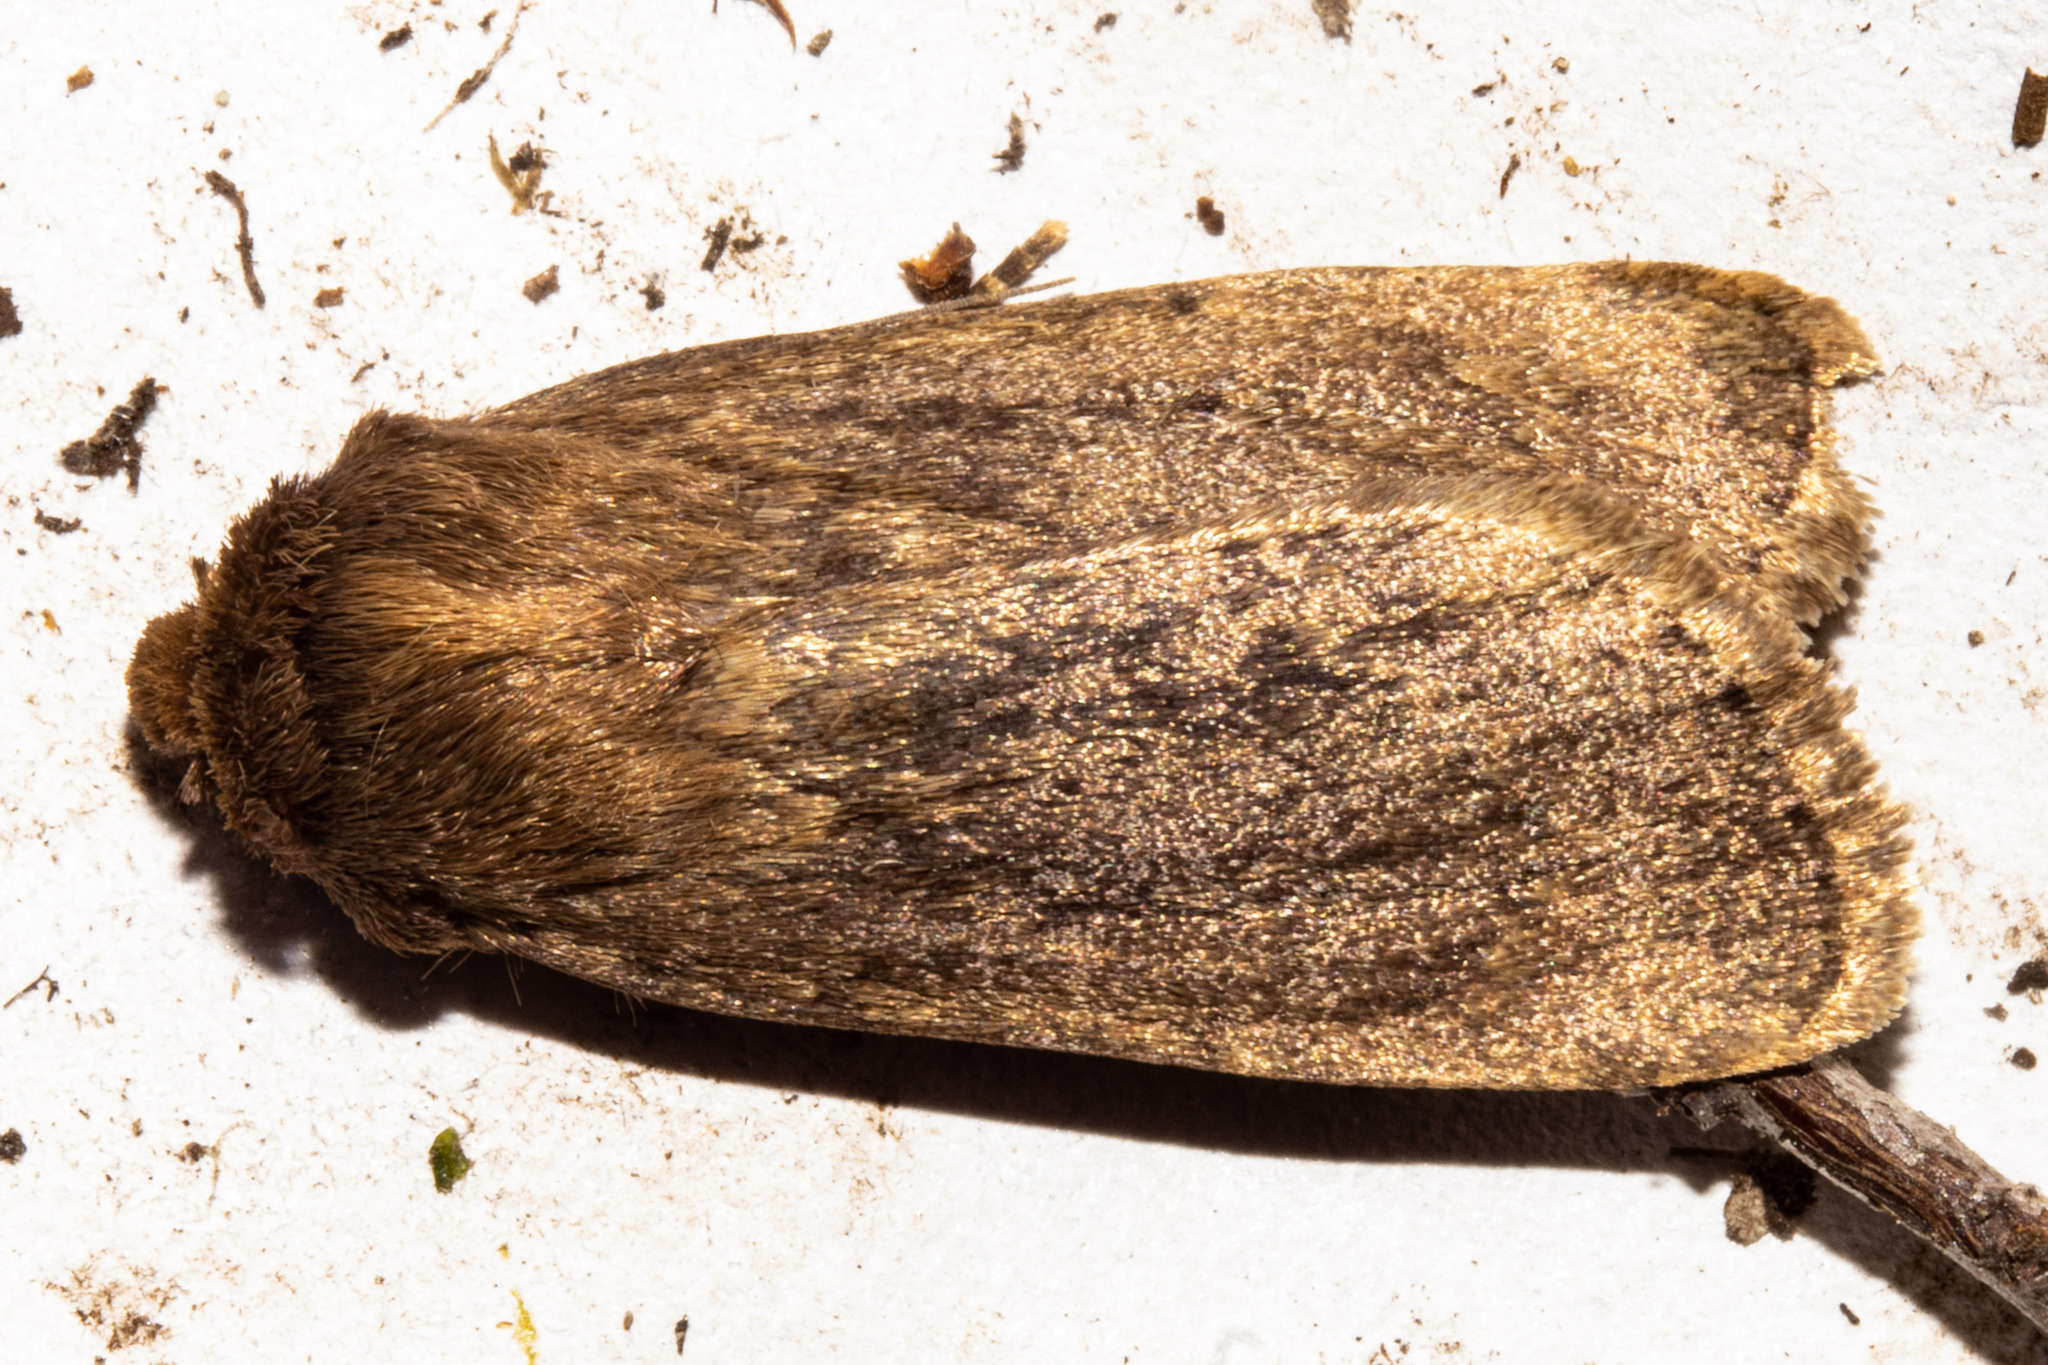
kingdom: Animalia
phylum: Arthropoda
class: Insecta
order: Lepidoptera
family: Noctuidae
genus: Bityla
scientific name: Bityla defigurata
